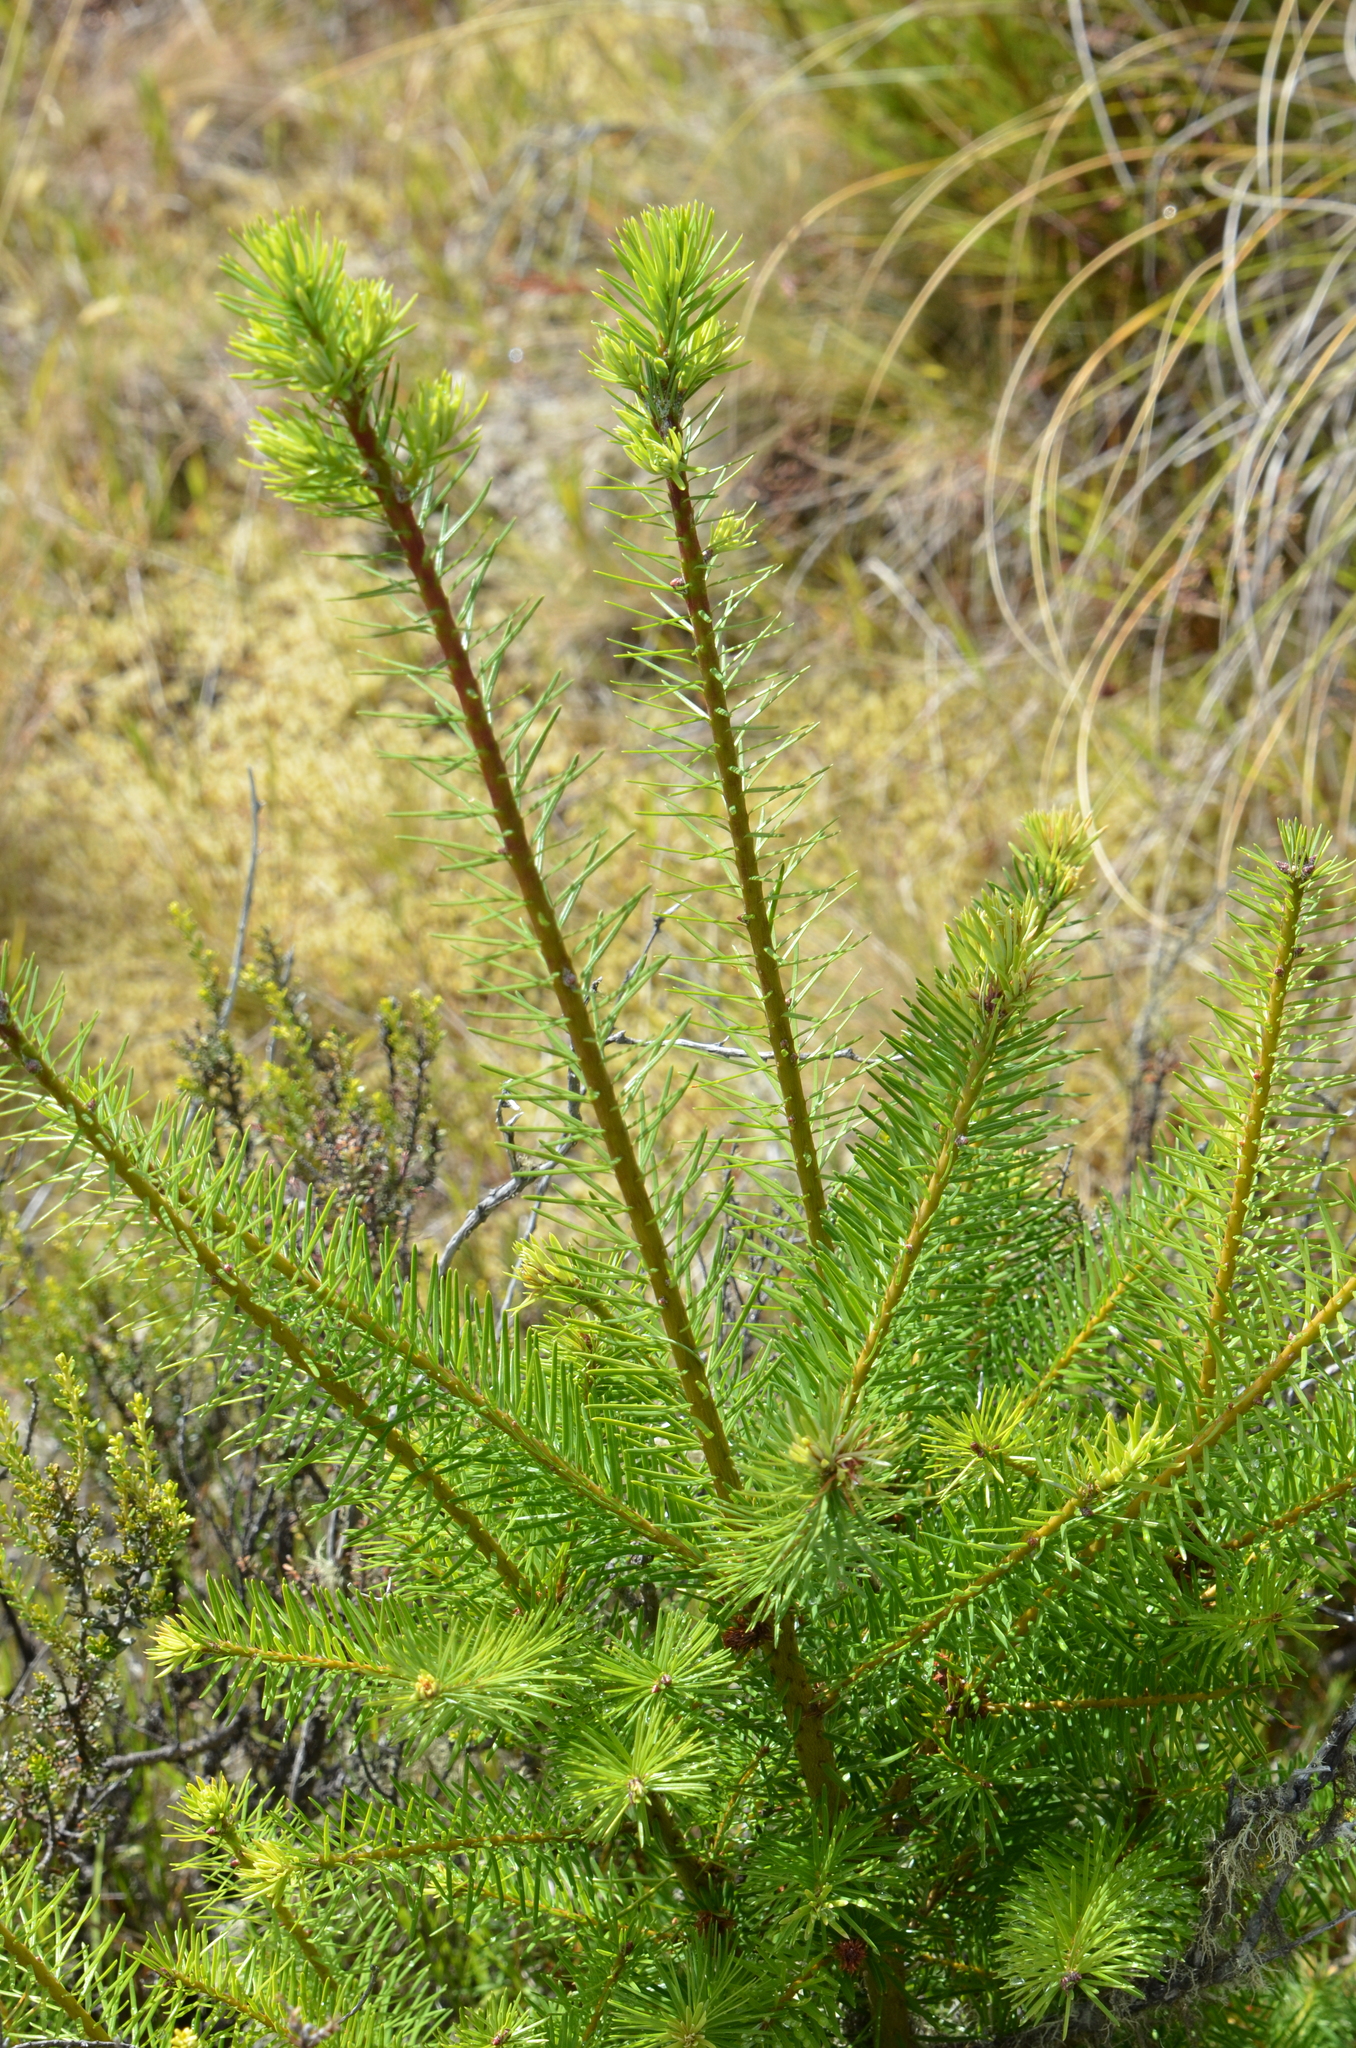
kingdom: Plantae
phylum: Tracheophyta
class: Pinopsida
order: Pinales
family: Pinaceae
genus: Pseudotsuga
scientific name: Pseudotsuga menziesii
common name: Douglas fir
